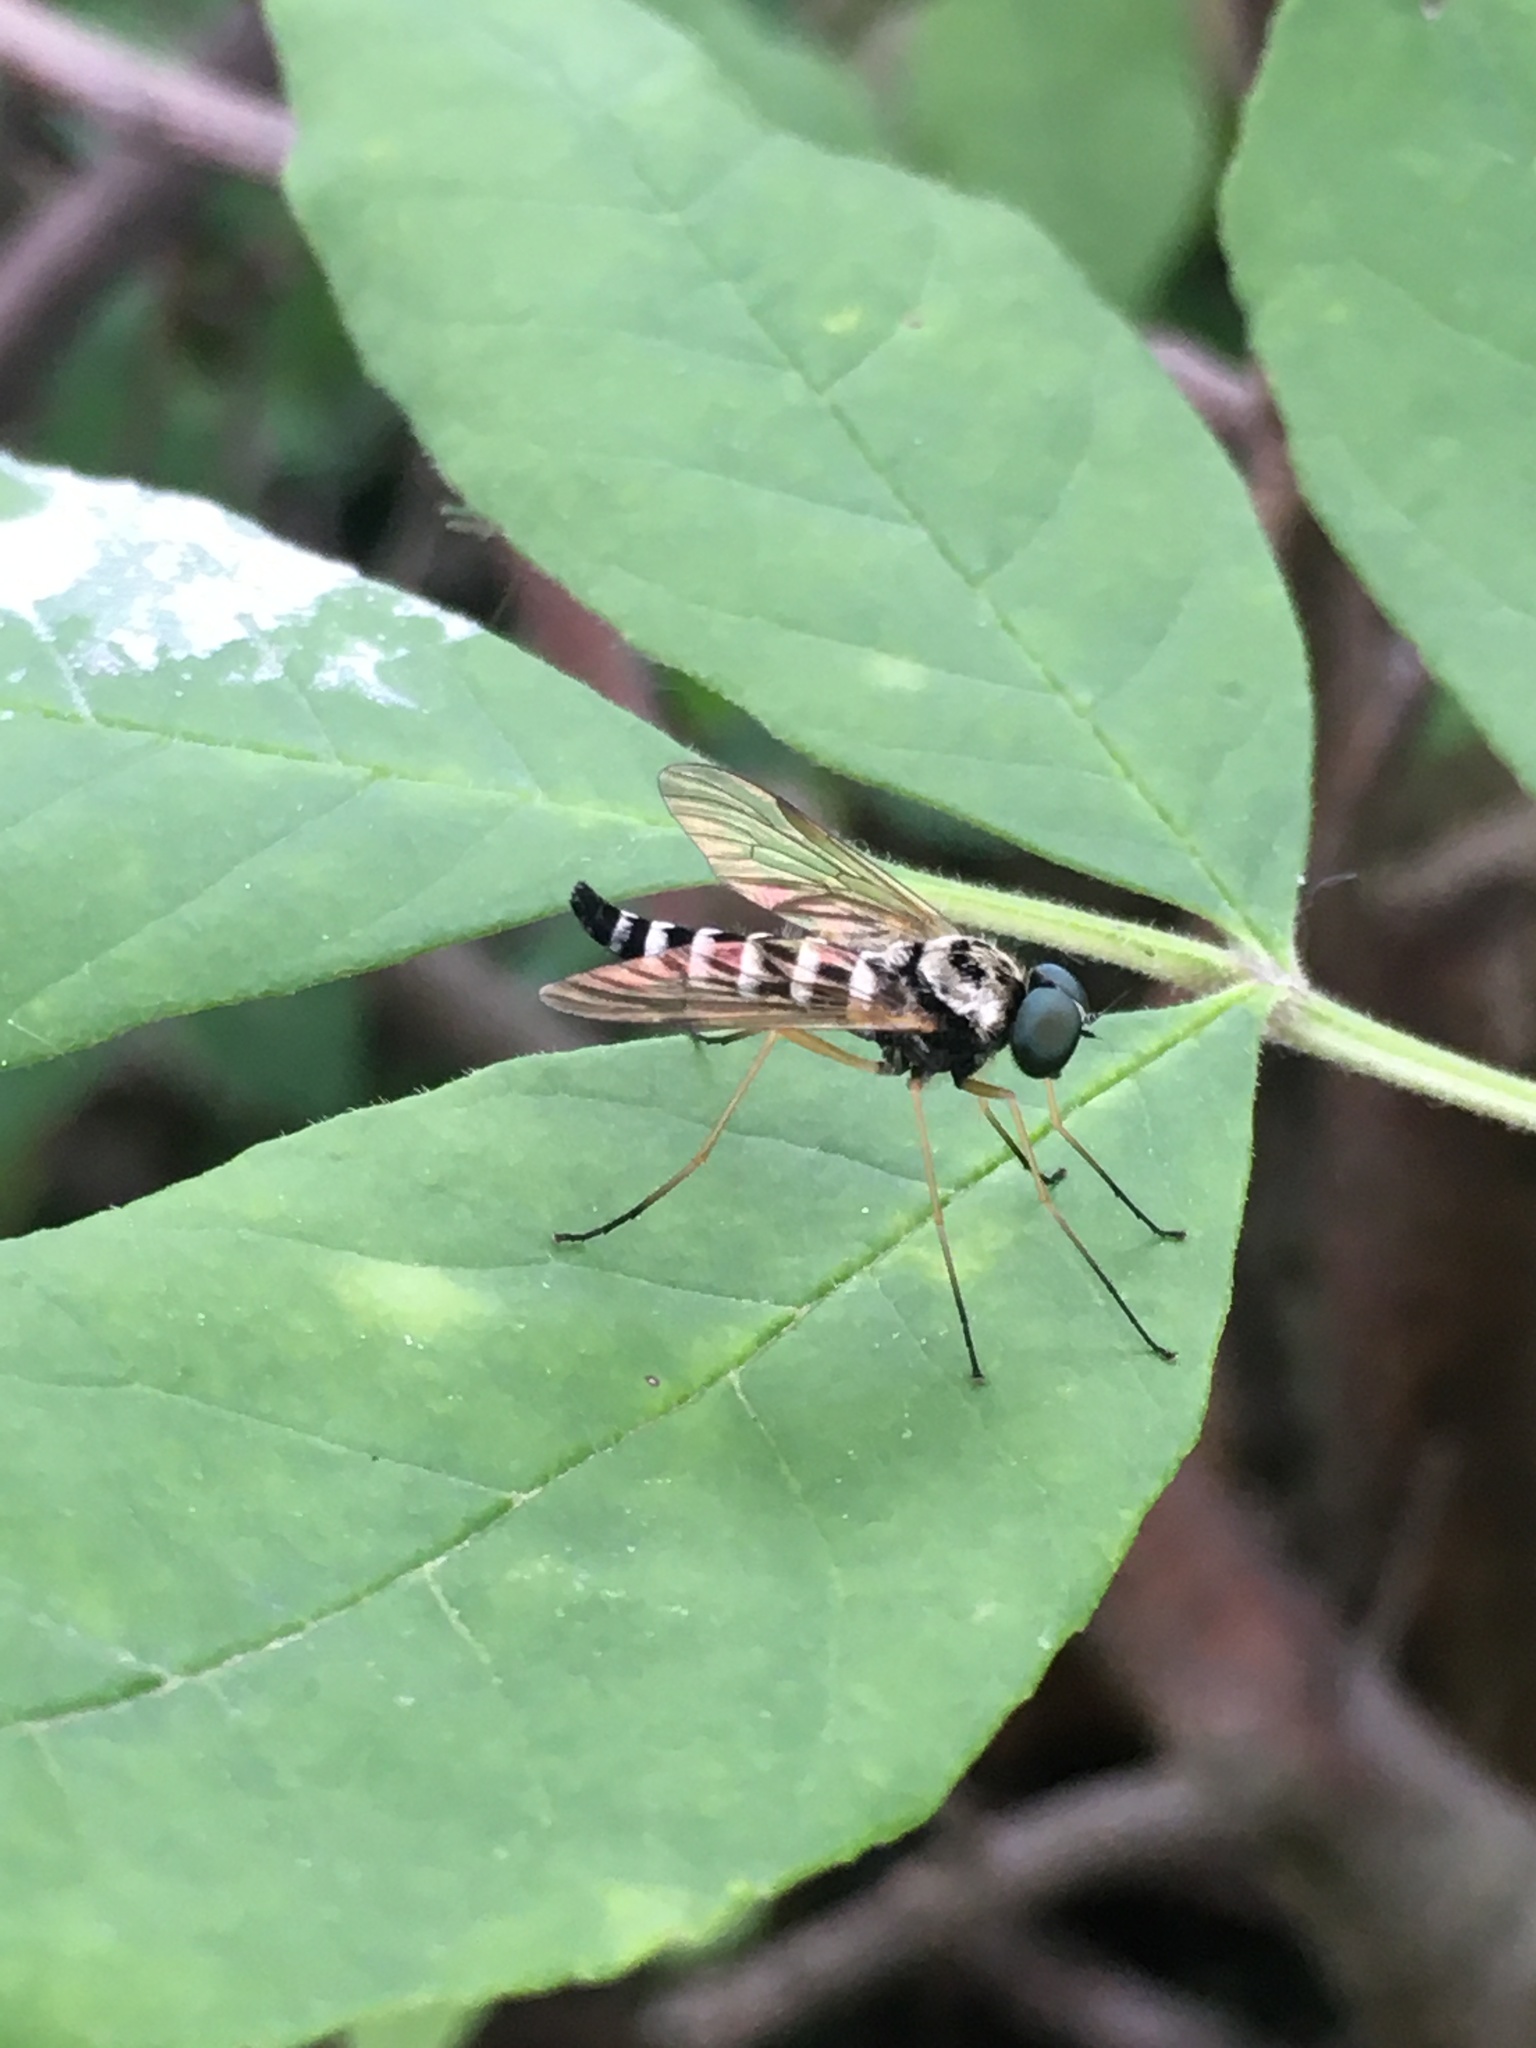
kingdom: Animalia
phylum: Arthropoda
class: Insecta
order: Diptera
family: Rhagionidae
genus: Chrysopilus
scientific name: Chrysopilus ornatus
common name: Ornate snipe fly
